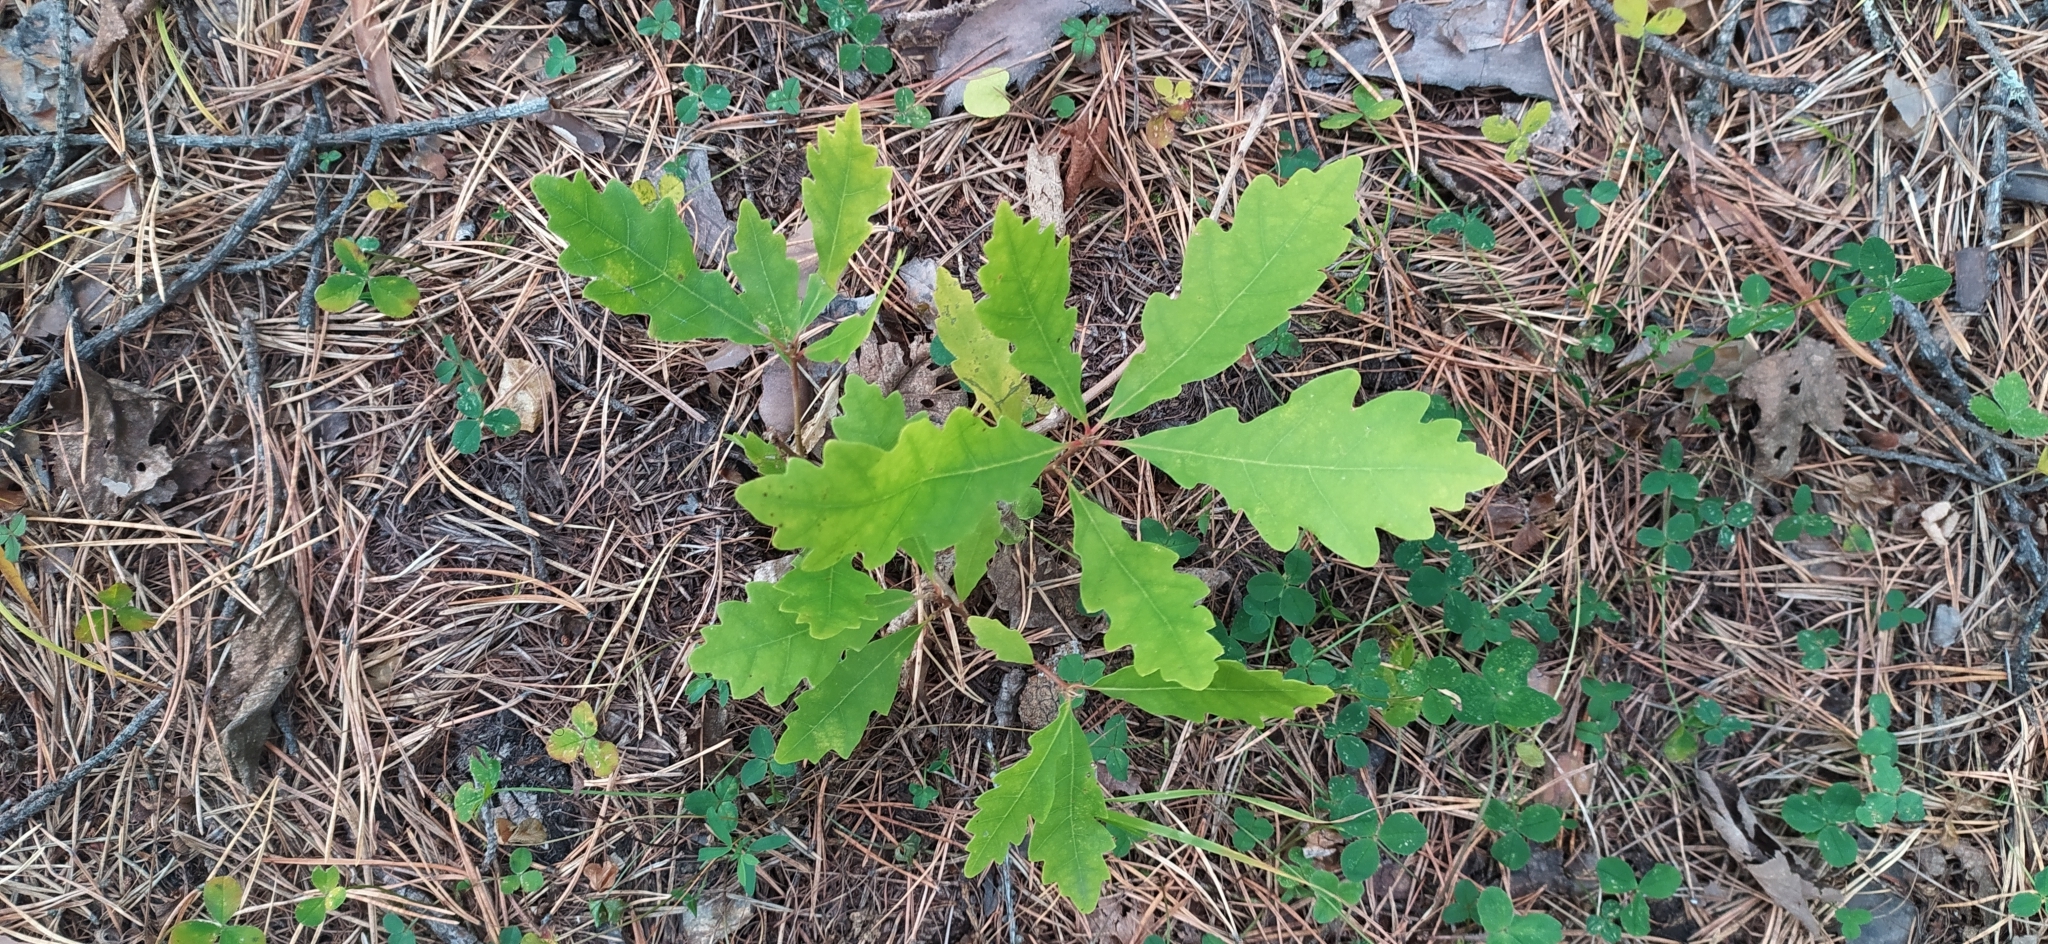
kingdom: Plantae
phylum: Tracheophyta
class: Magnoliopsida
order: Fagales
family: Fagaceae
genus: Quercus
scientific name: Quercus robur
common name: Pedunculate oak
